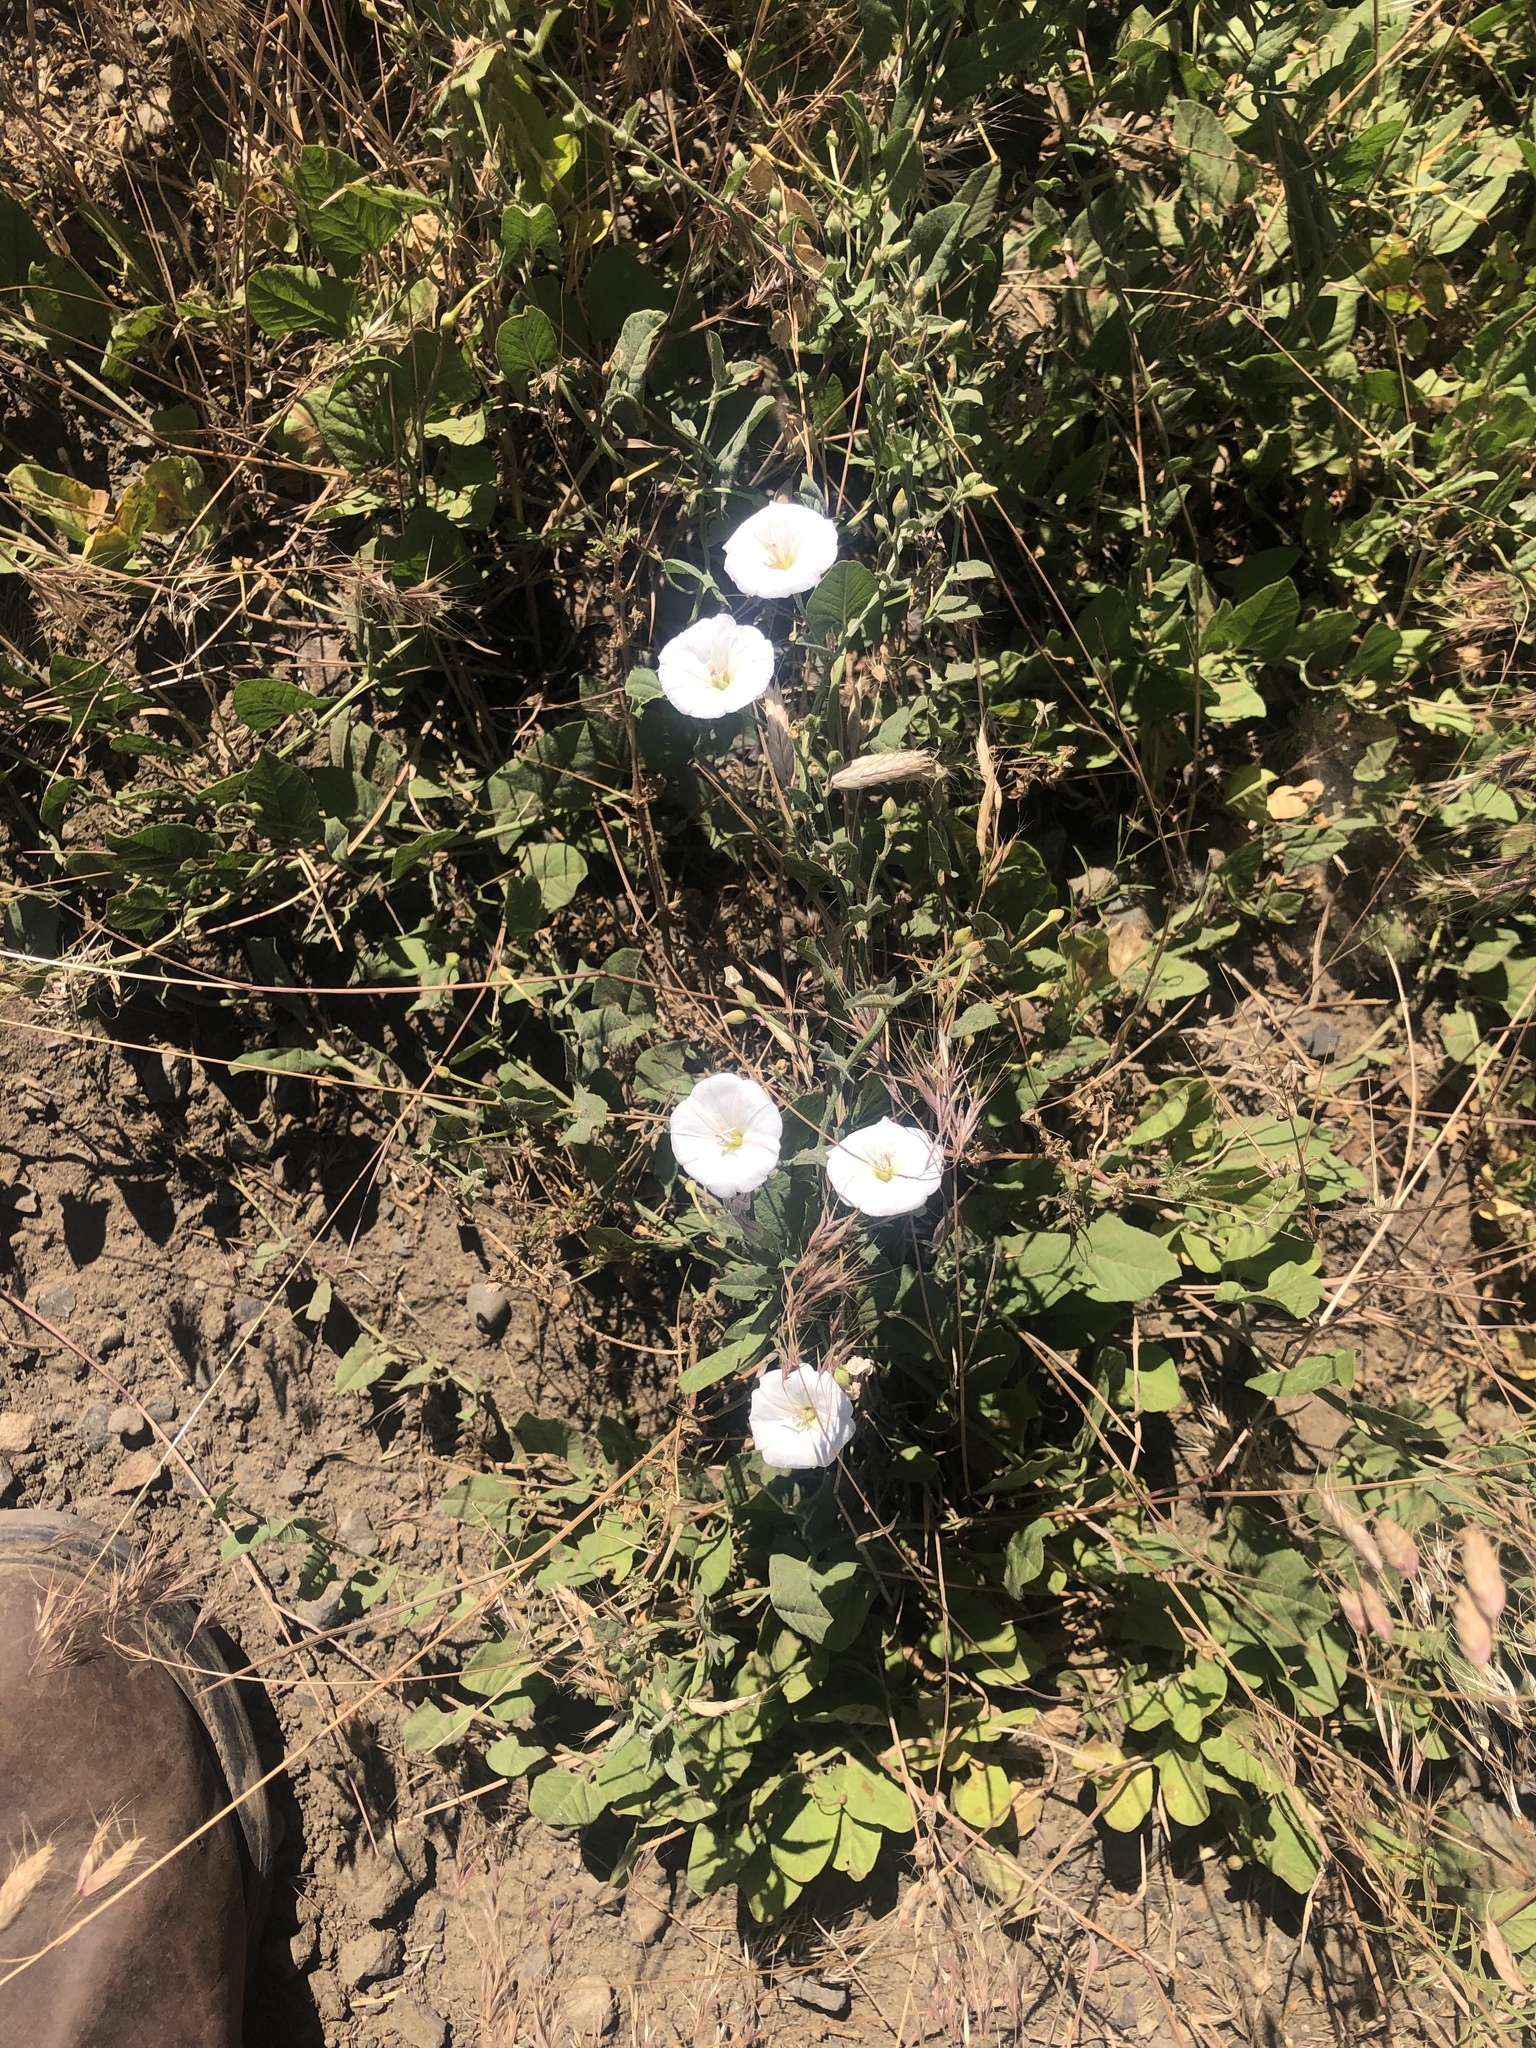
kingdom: Plantae
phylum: Tracheophyta
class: Magnoliopsida
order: Solanales
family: Convolvulaceae
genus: Convolvulus
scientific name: Convolvulus arvensis
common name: Field bindweed
